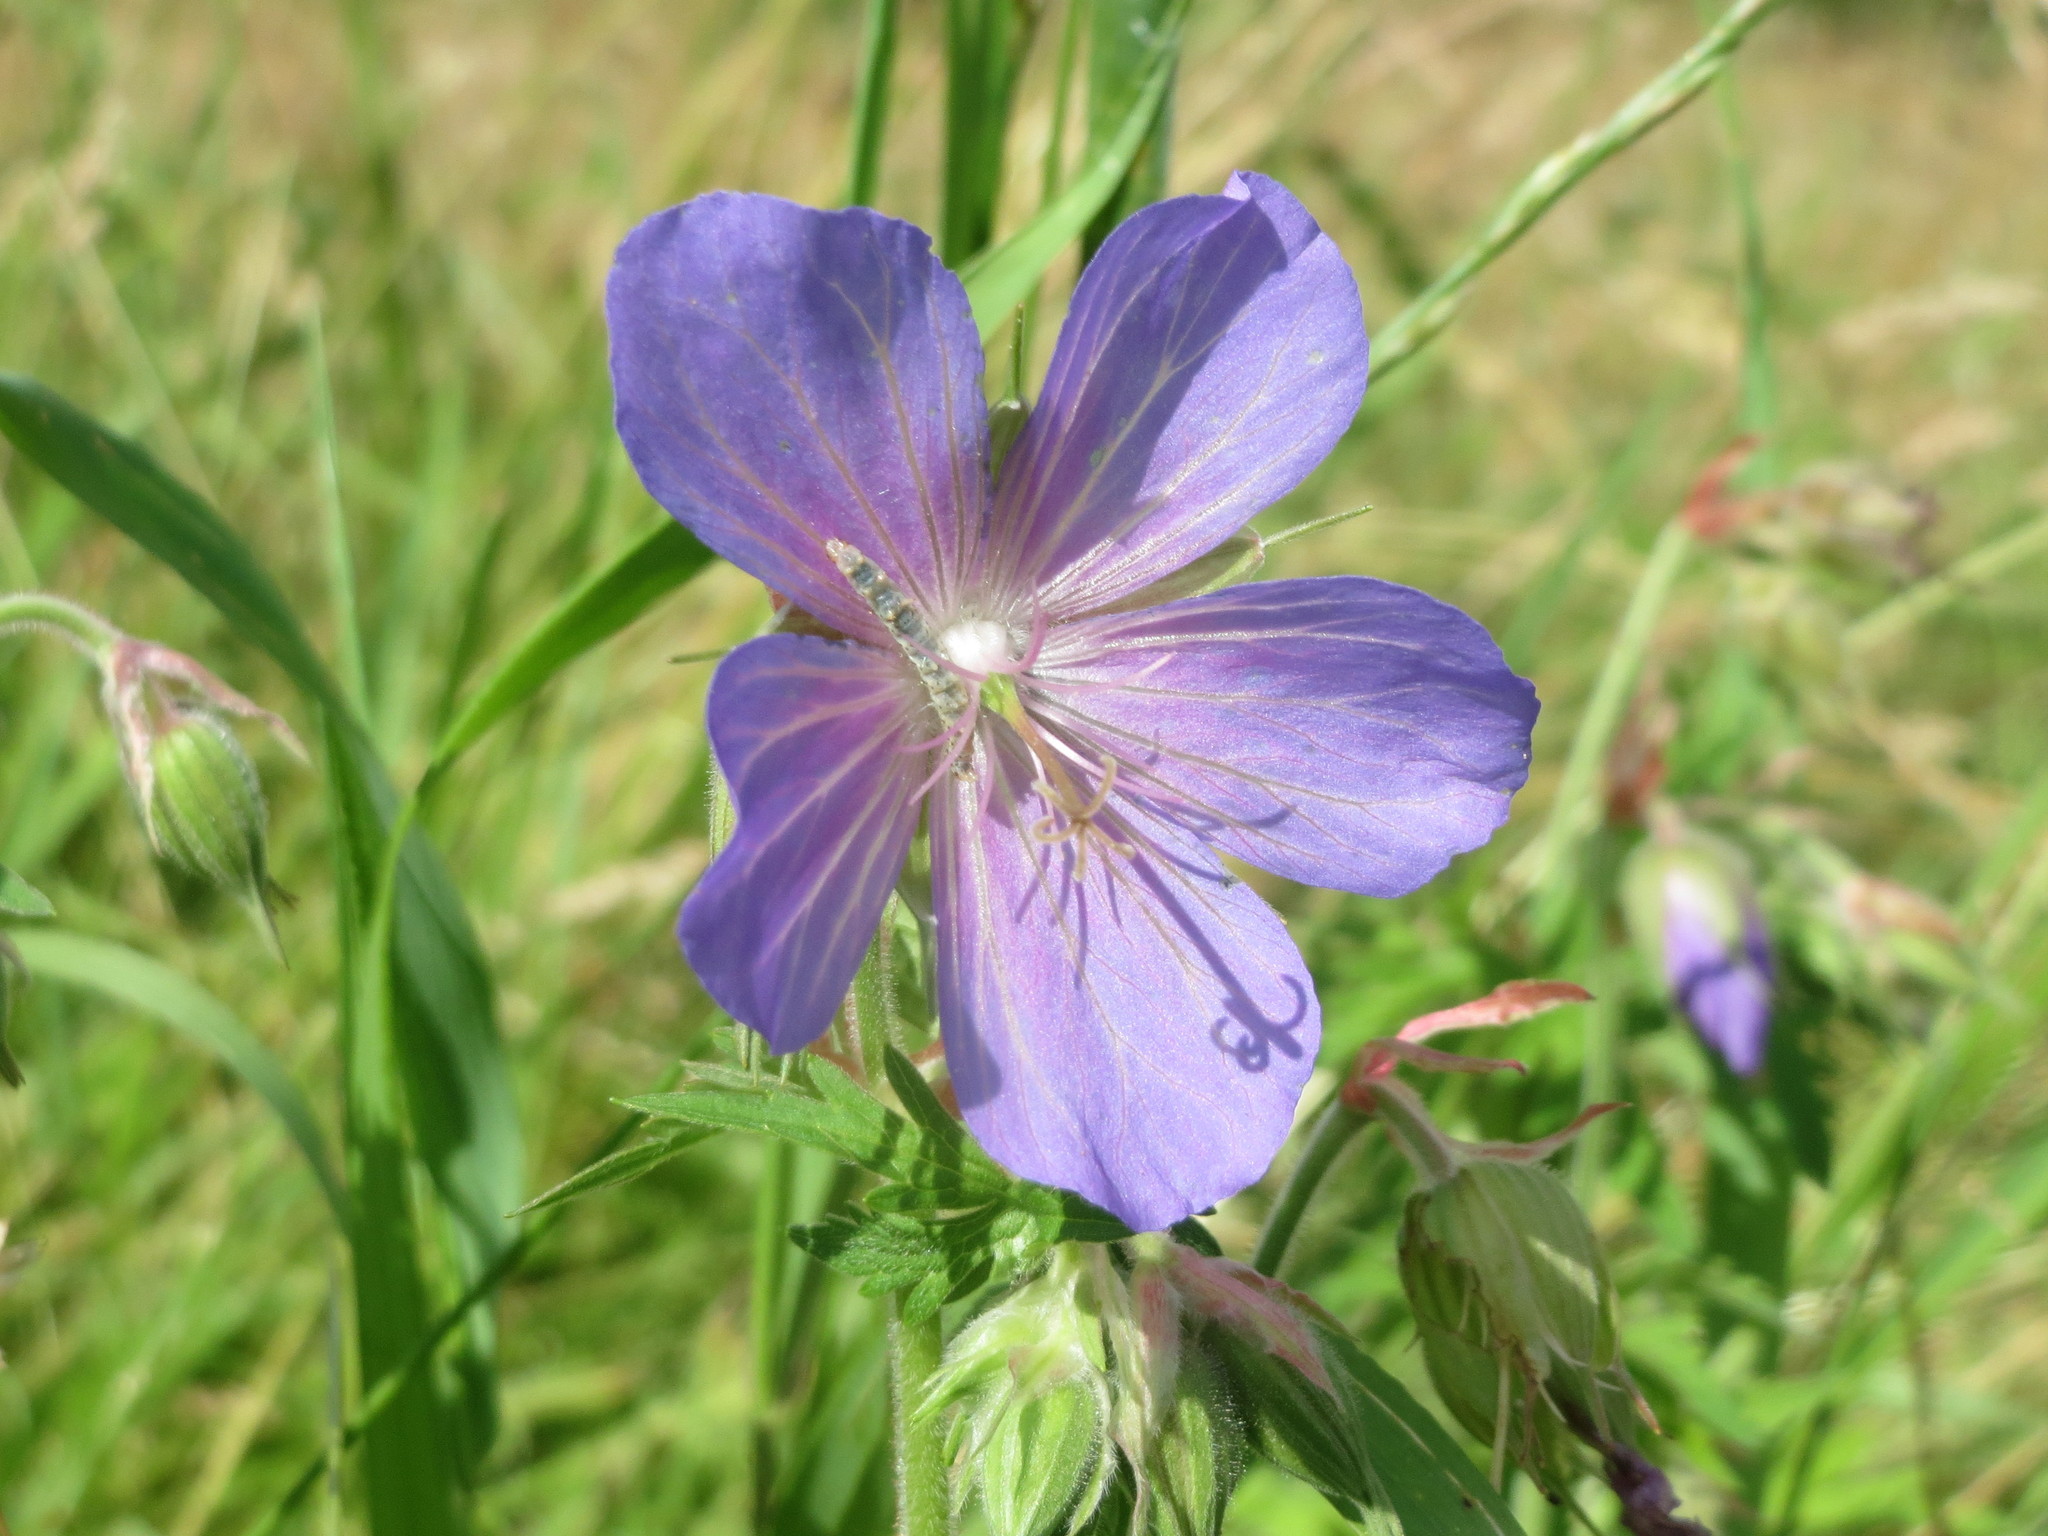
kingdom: Plantae
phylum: Tracheophyta
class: Magnoliopsida
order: Geraniales
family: Geraniaceae
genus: Geranium
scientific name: Geranium pratense
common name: Meadow crane's-bill
